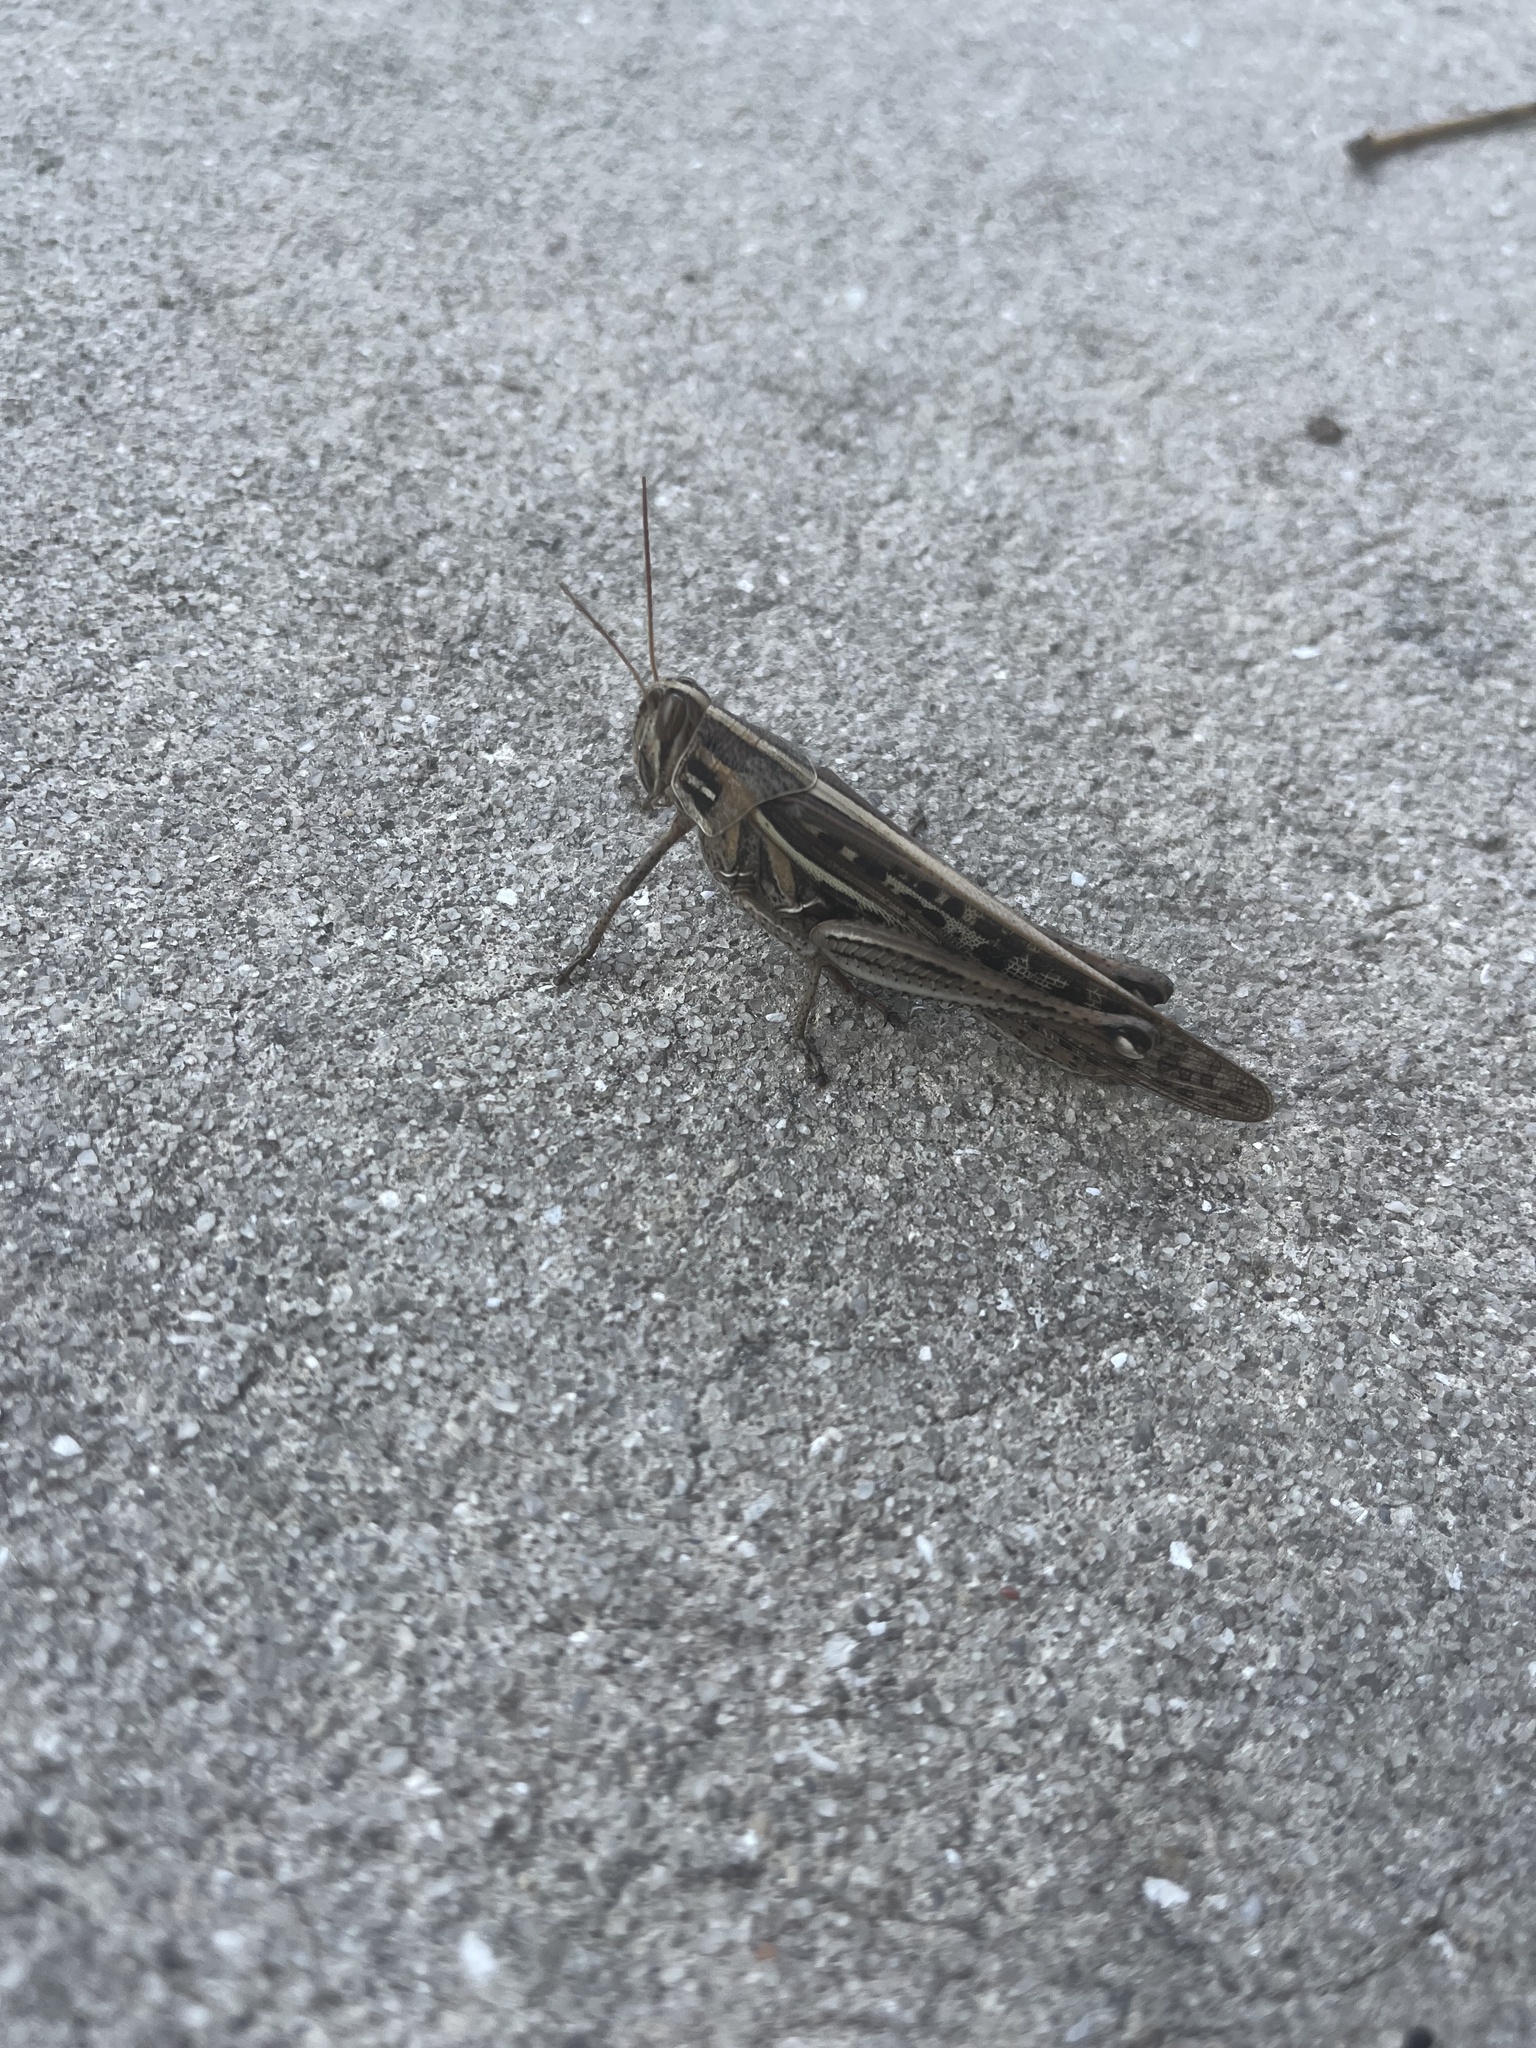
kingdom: Animalia
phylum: Arthropoda
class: Insecta
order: Orthoptera
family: Acrididae
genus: Schistocerca
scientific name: Schistocerca serialis
